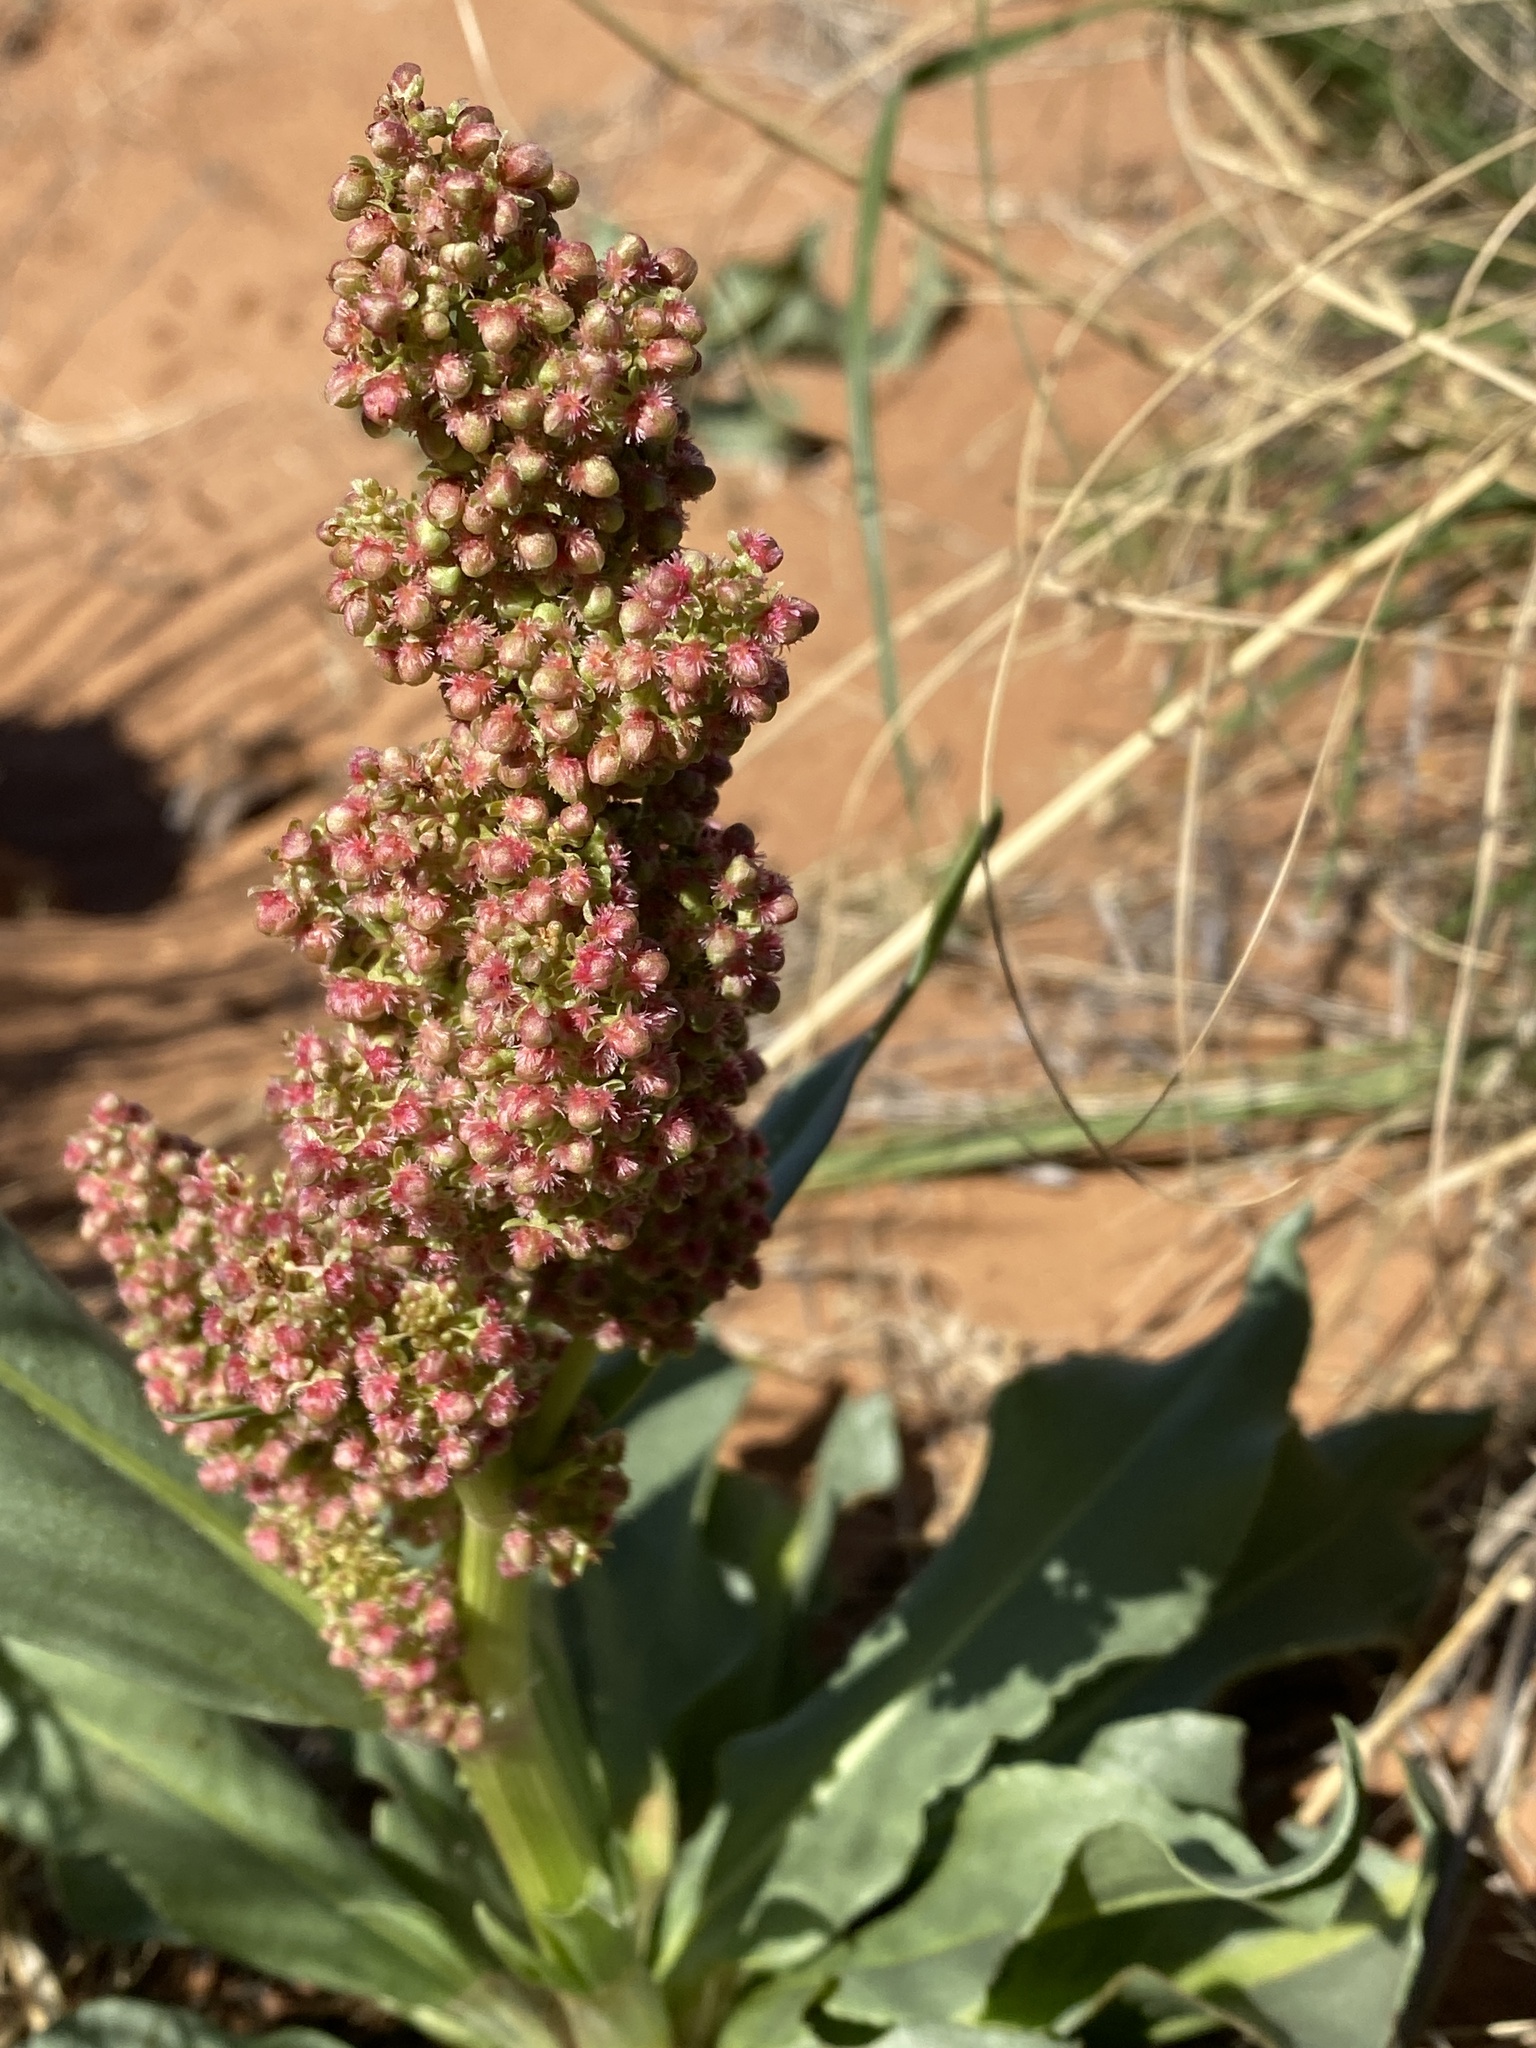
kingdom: Plantae
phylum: Tracheophyta
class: Magnoliopsida
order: Caryophyllales
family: Polygonaceae
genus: Rumex
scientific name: Rumex hymenosepalus
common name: Ganagra
